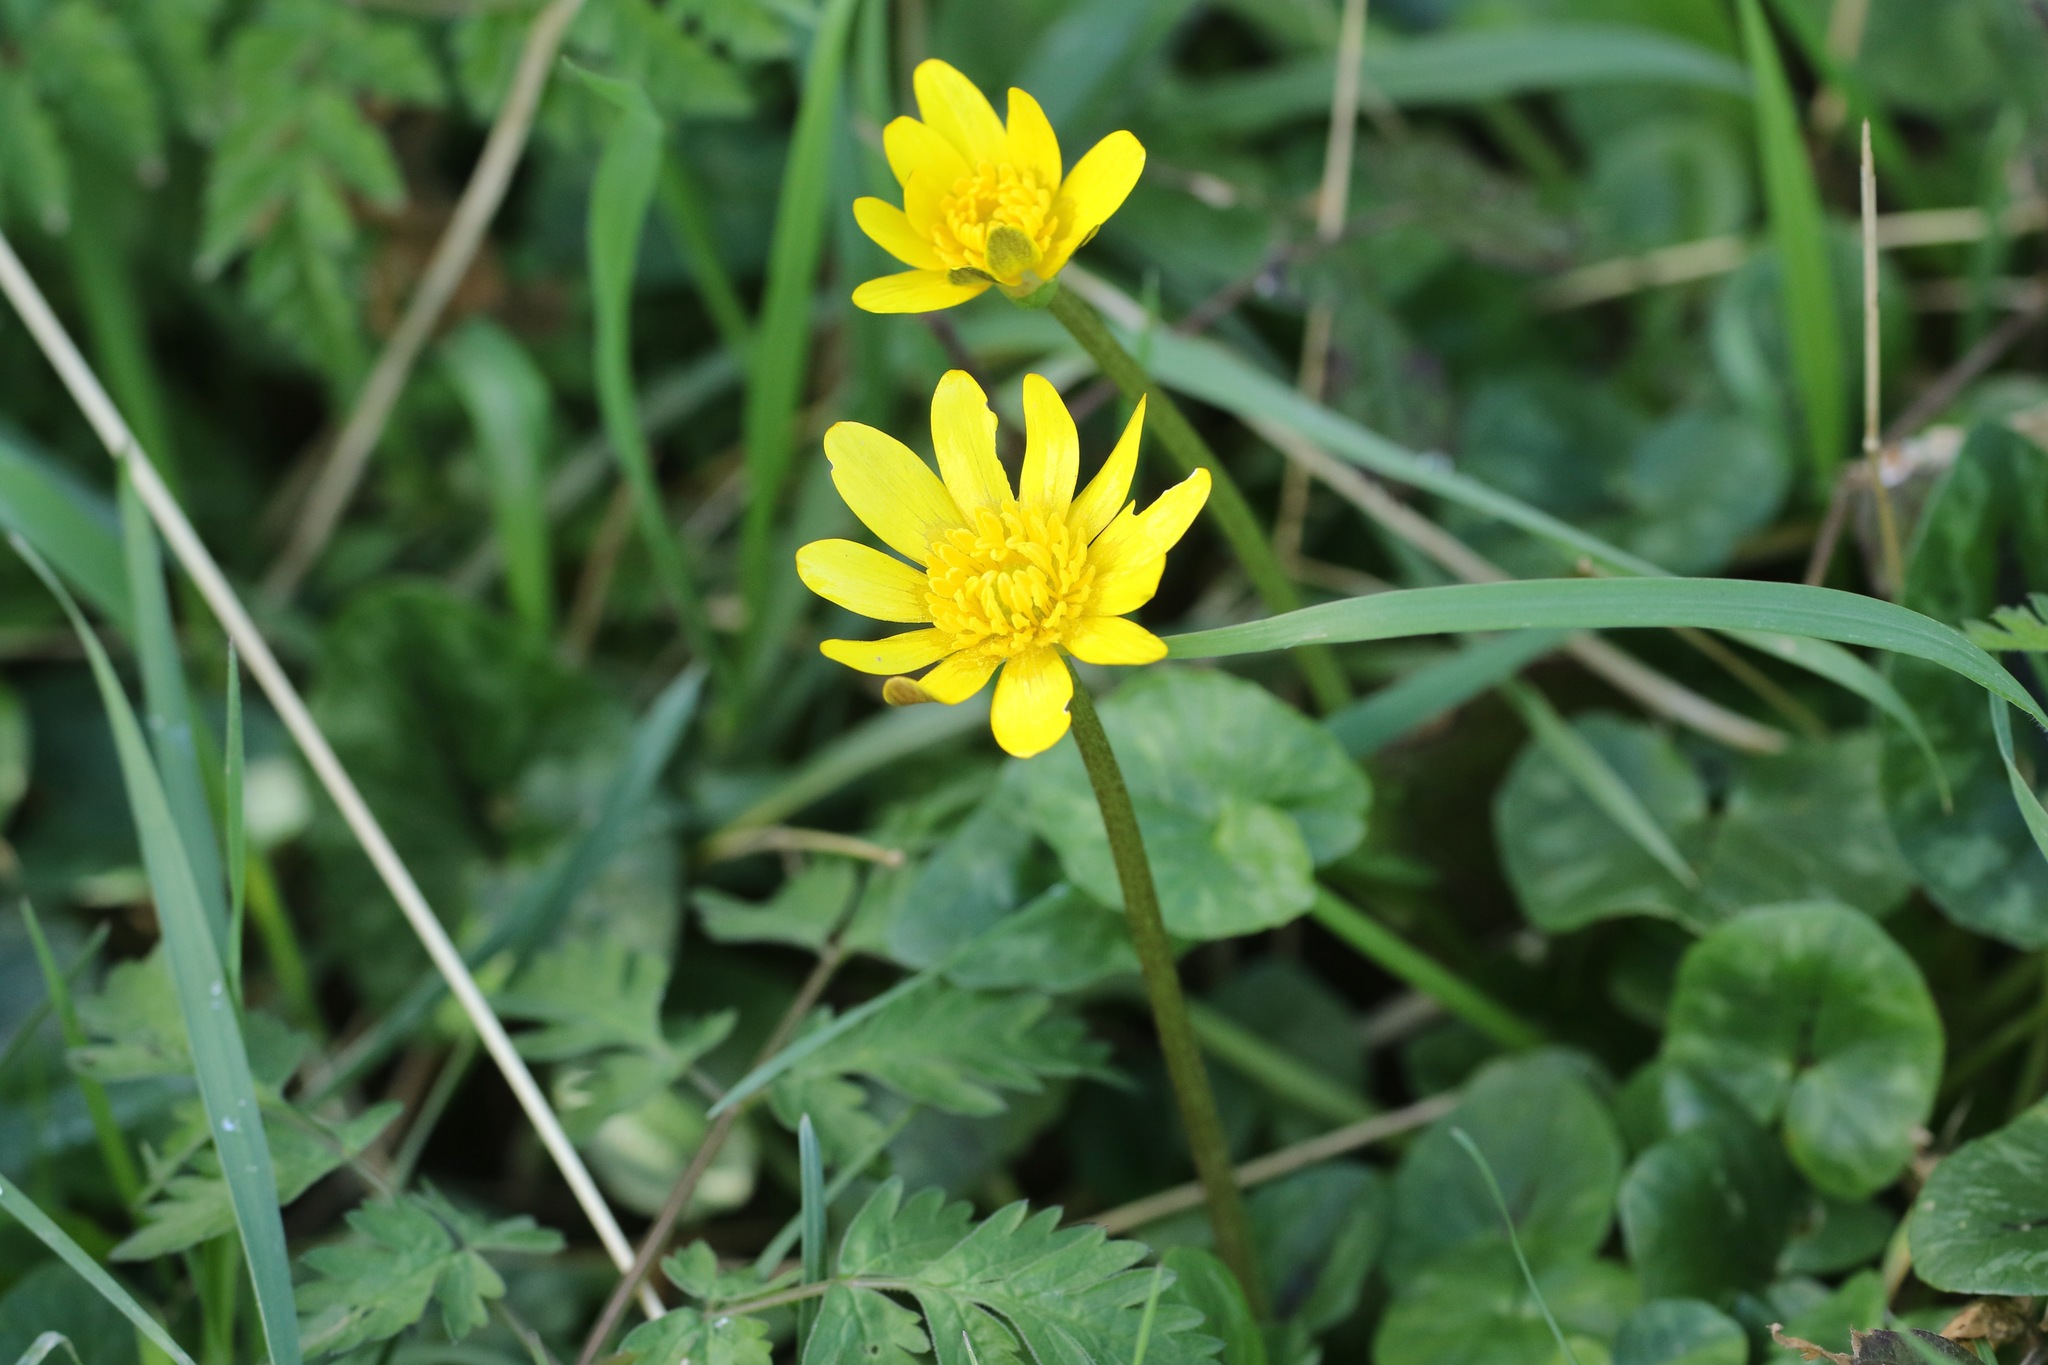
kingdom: Plantae
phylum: Tracheophyta
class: Magnoliopsida
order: Ranunculales
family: Ranunculaceae
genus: Ficaria
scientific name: Ficaria verna
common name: Lesser celandine
